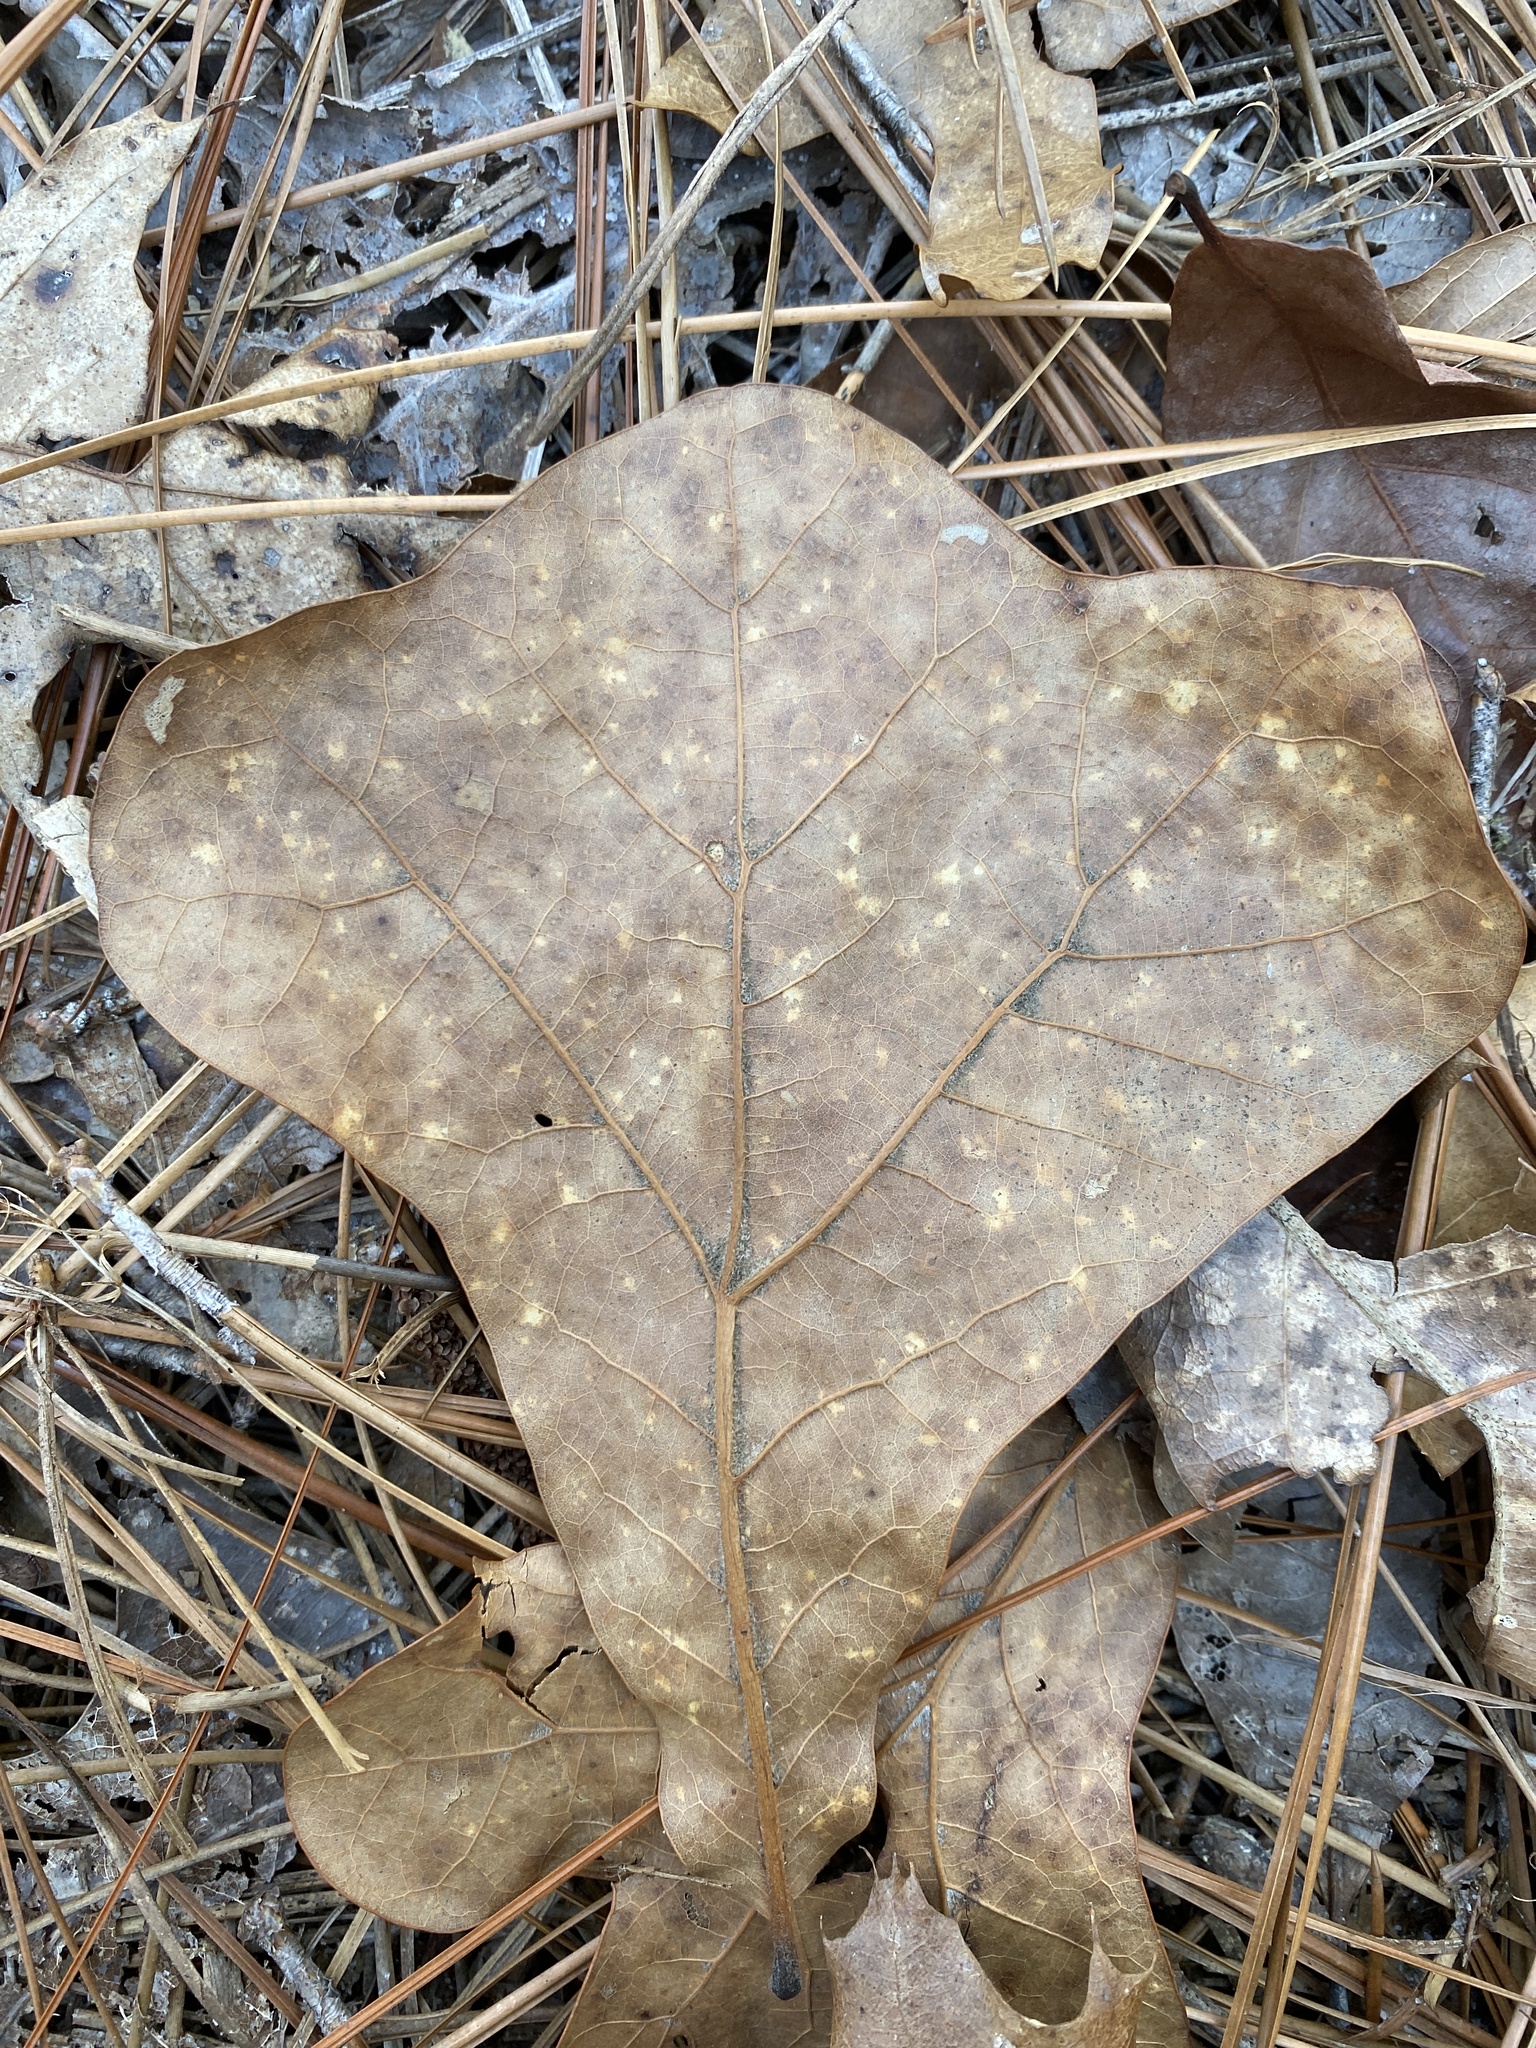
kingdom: Plantae
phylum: Tracheophyta
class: Magnoliopsida
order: Fagales
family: Fagaceae
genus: Quercus
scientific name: Quercus marilandica
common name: Blackjack oak
